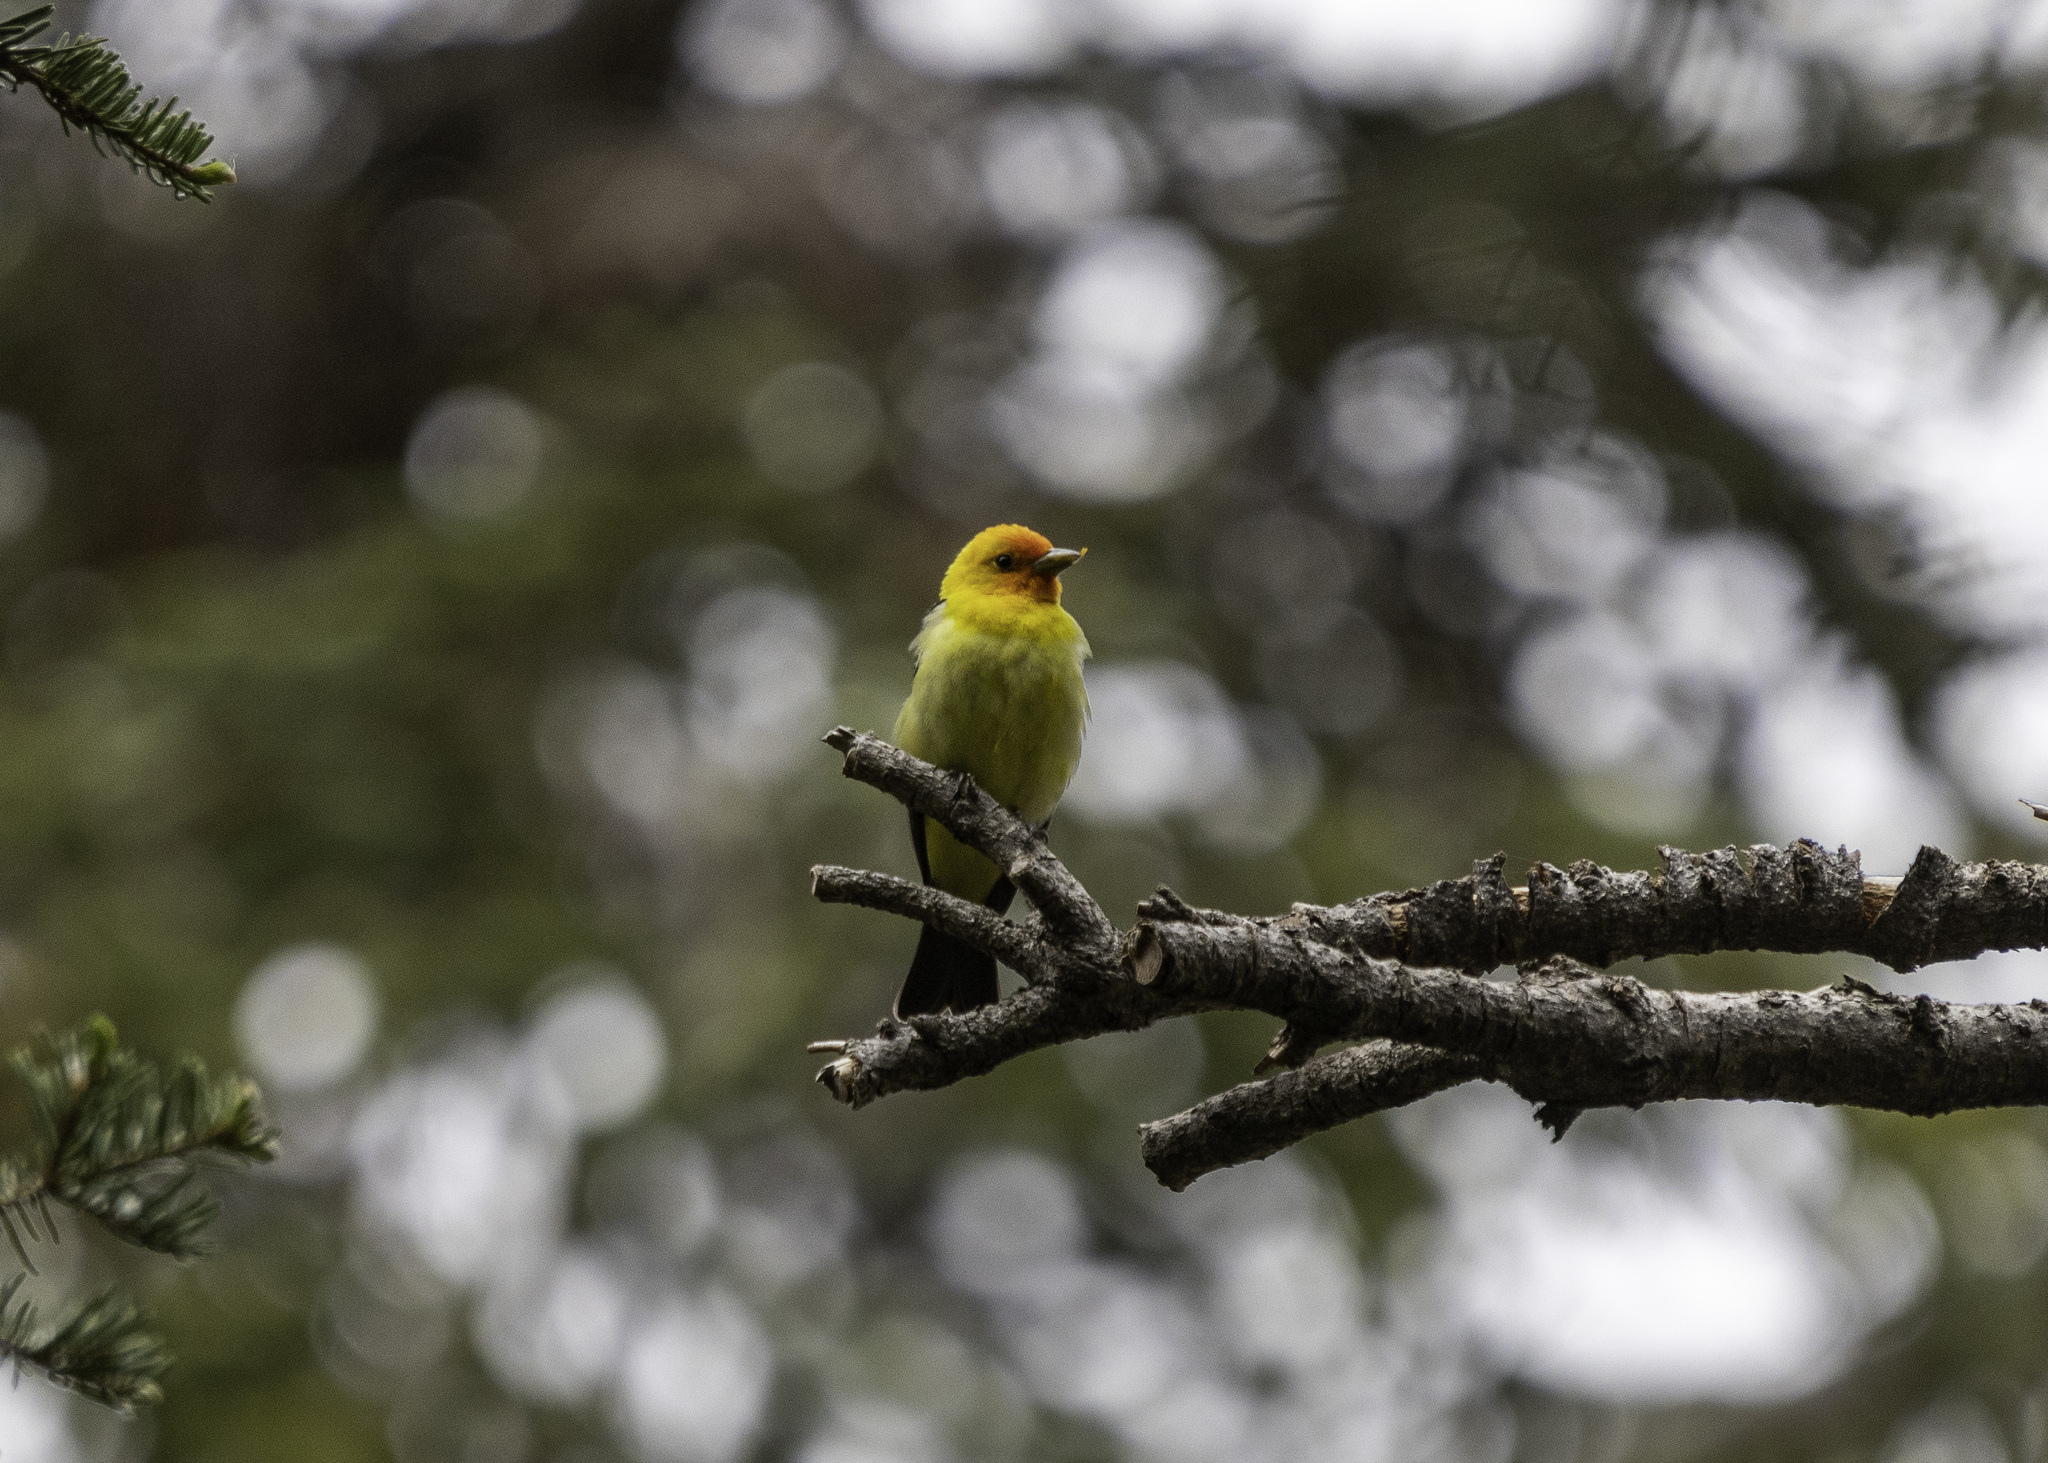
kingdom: Animalia
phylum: Chordata
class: Aves
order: Passeriformes
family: Cardinalidae
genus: Piranga
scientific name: Piranga ludoviciana
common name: Western tanager
